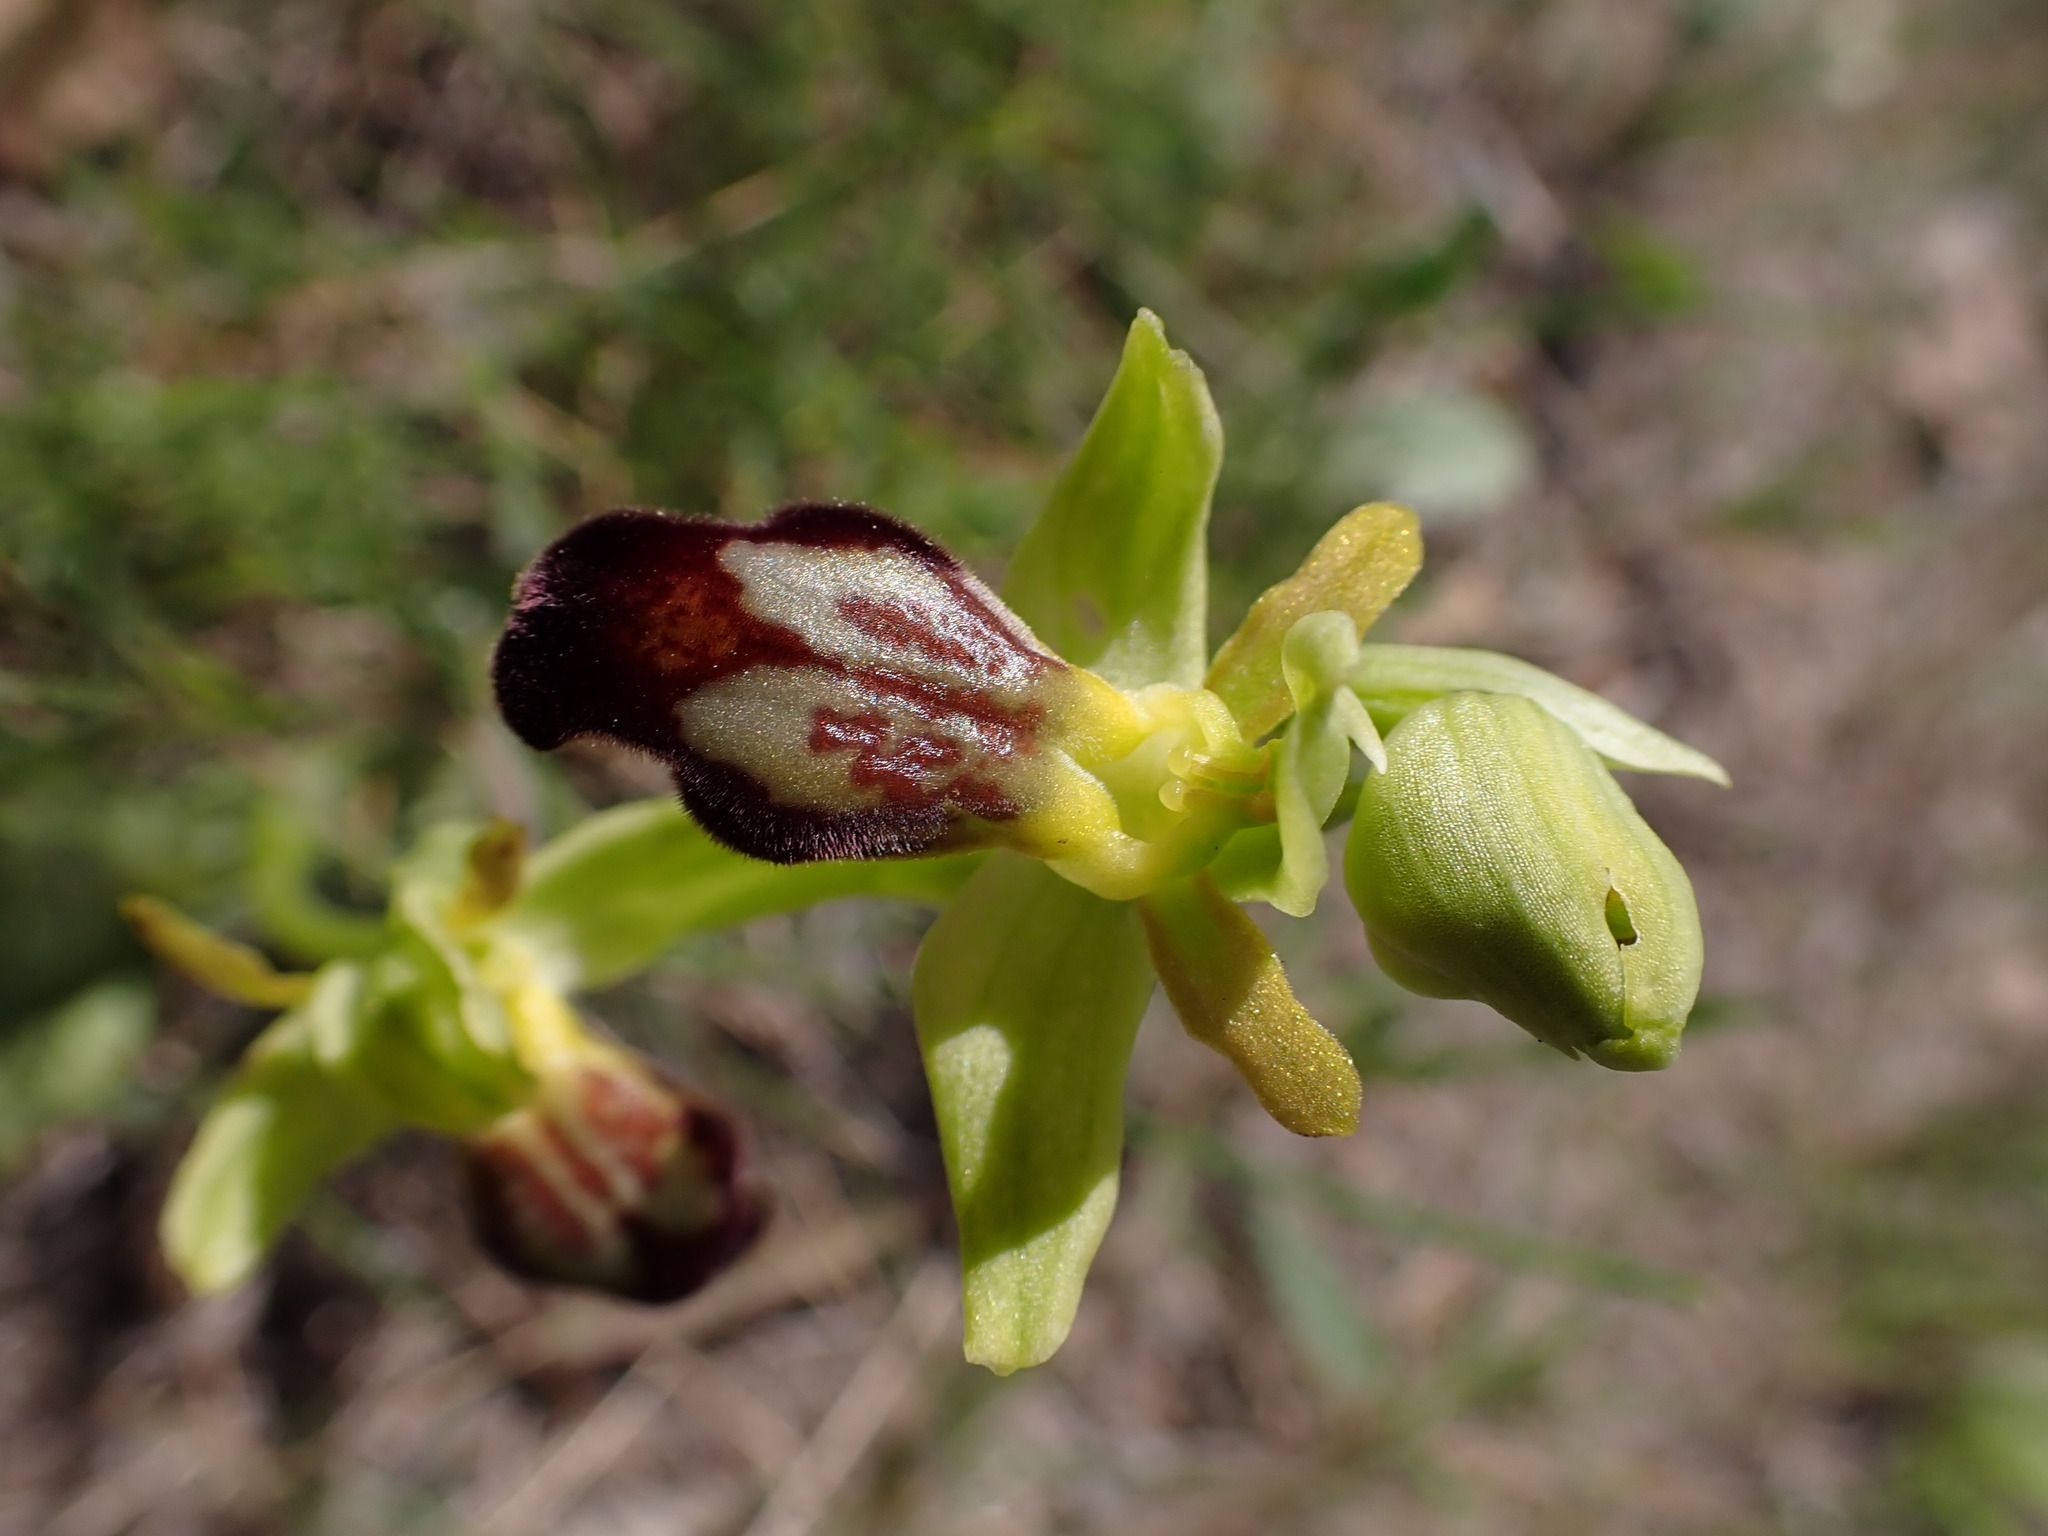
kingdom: Plantae
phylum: Tracheophyta
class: Liliopsida
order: Asparagales
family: Orchidaceae
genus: Ophrys
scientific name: Ophrys fusca
